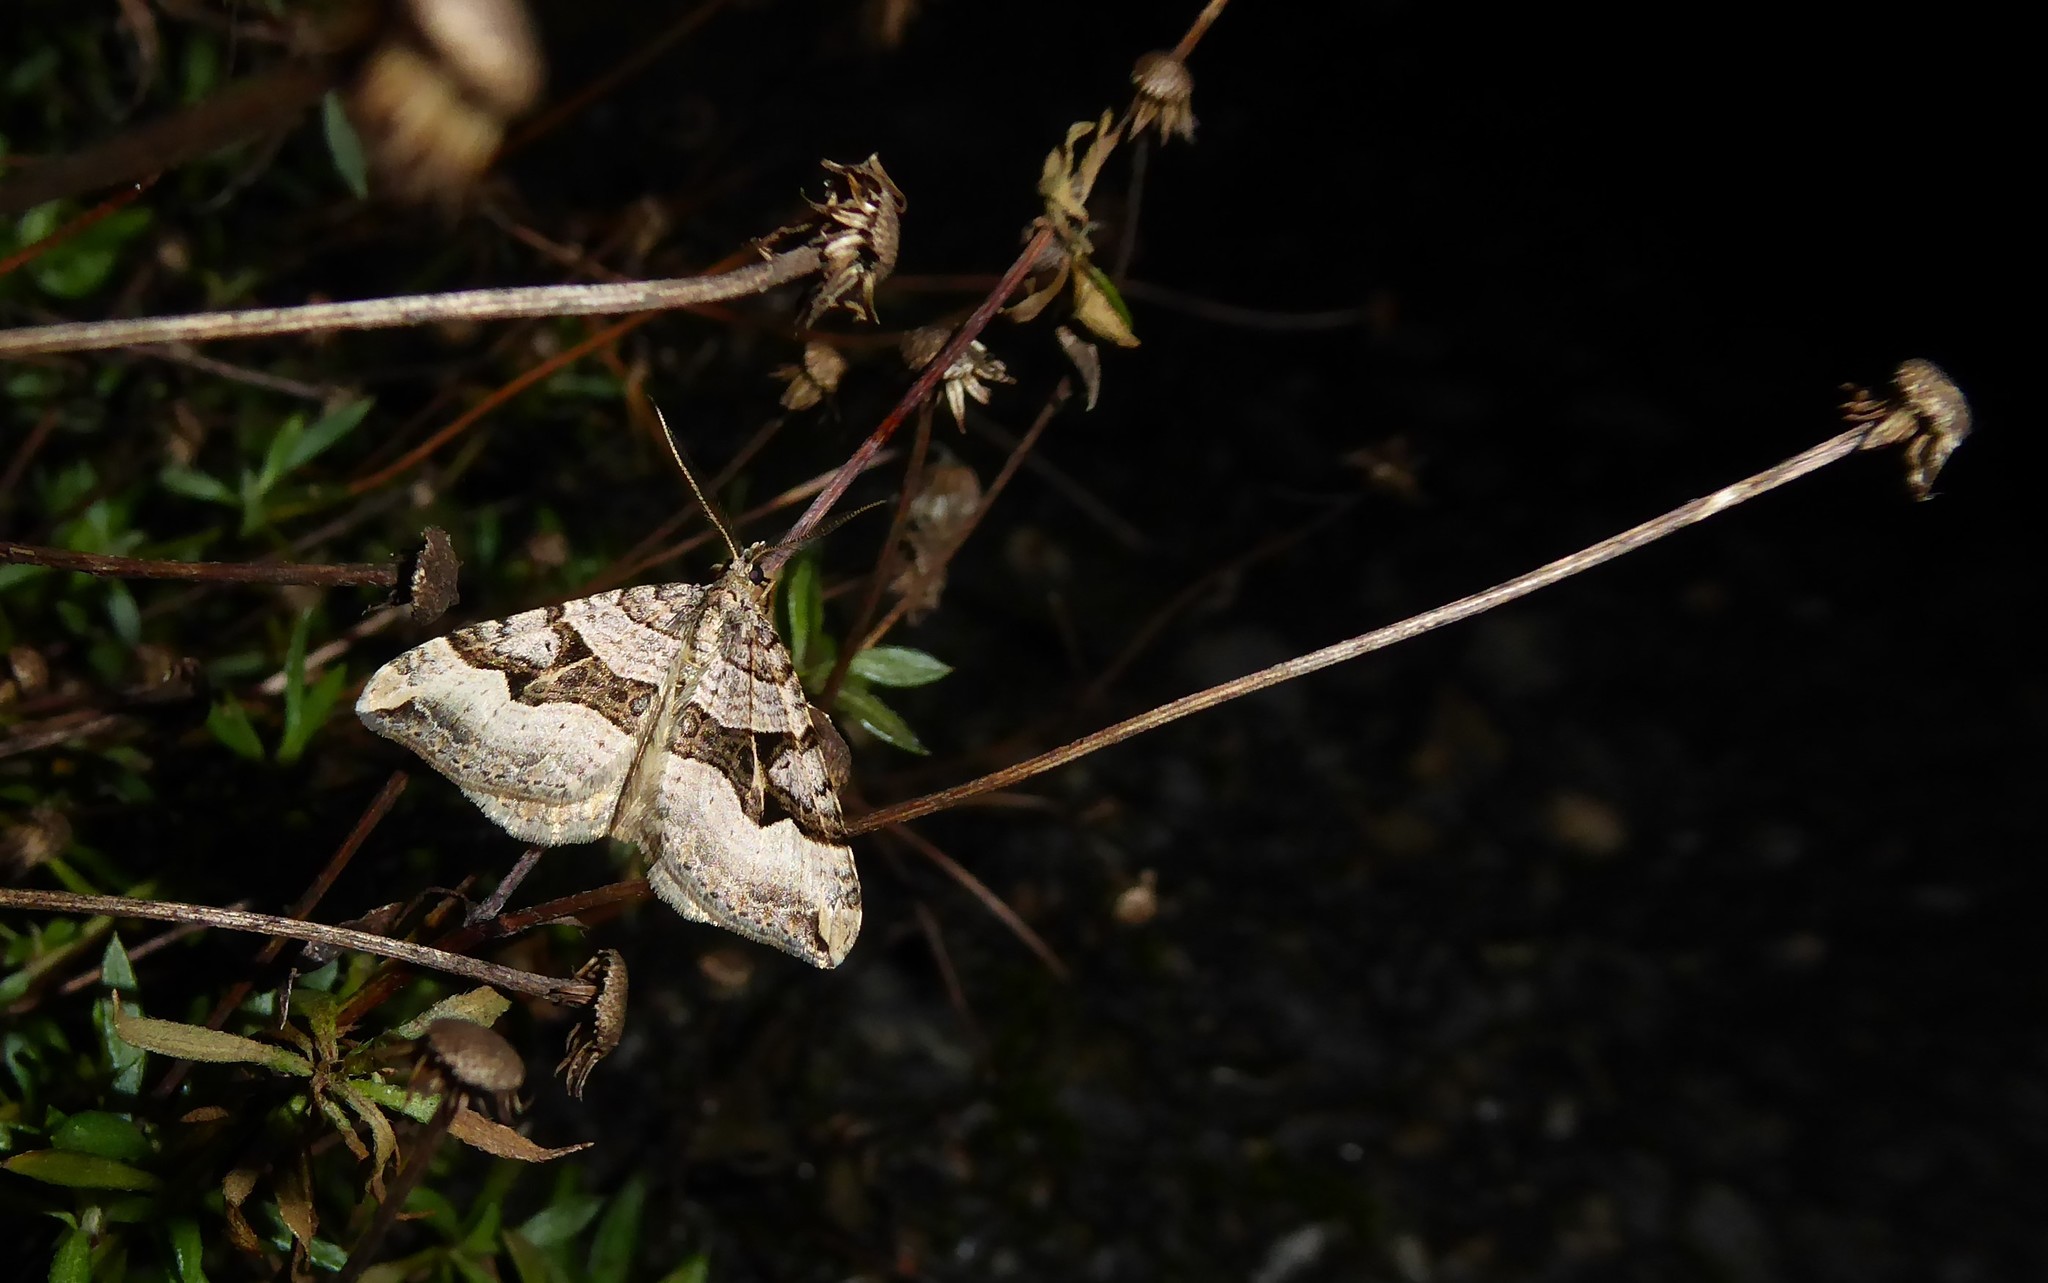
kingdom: Animalia
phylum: Arthropoda
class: Insecta
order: Lepidoptera
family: Geometridae
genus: Xanthorhoe
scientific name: Xanthorhoe semifissata
